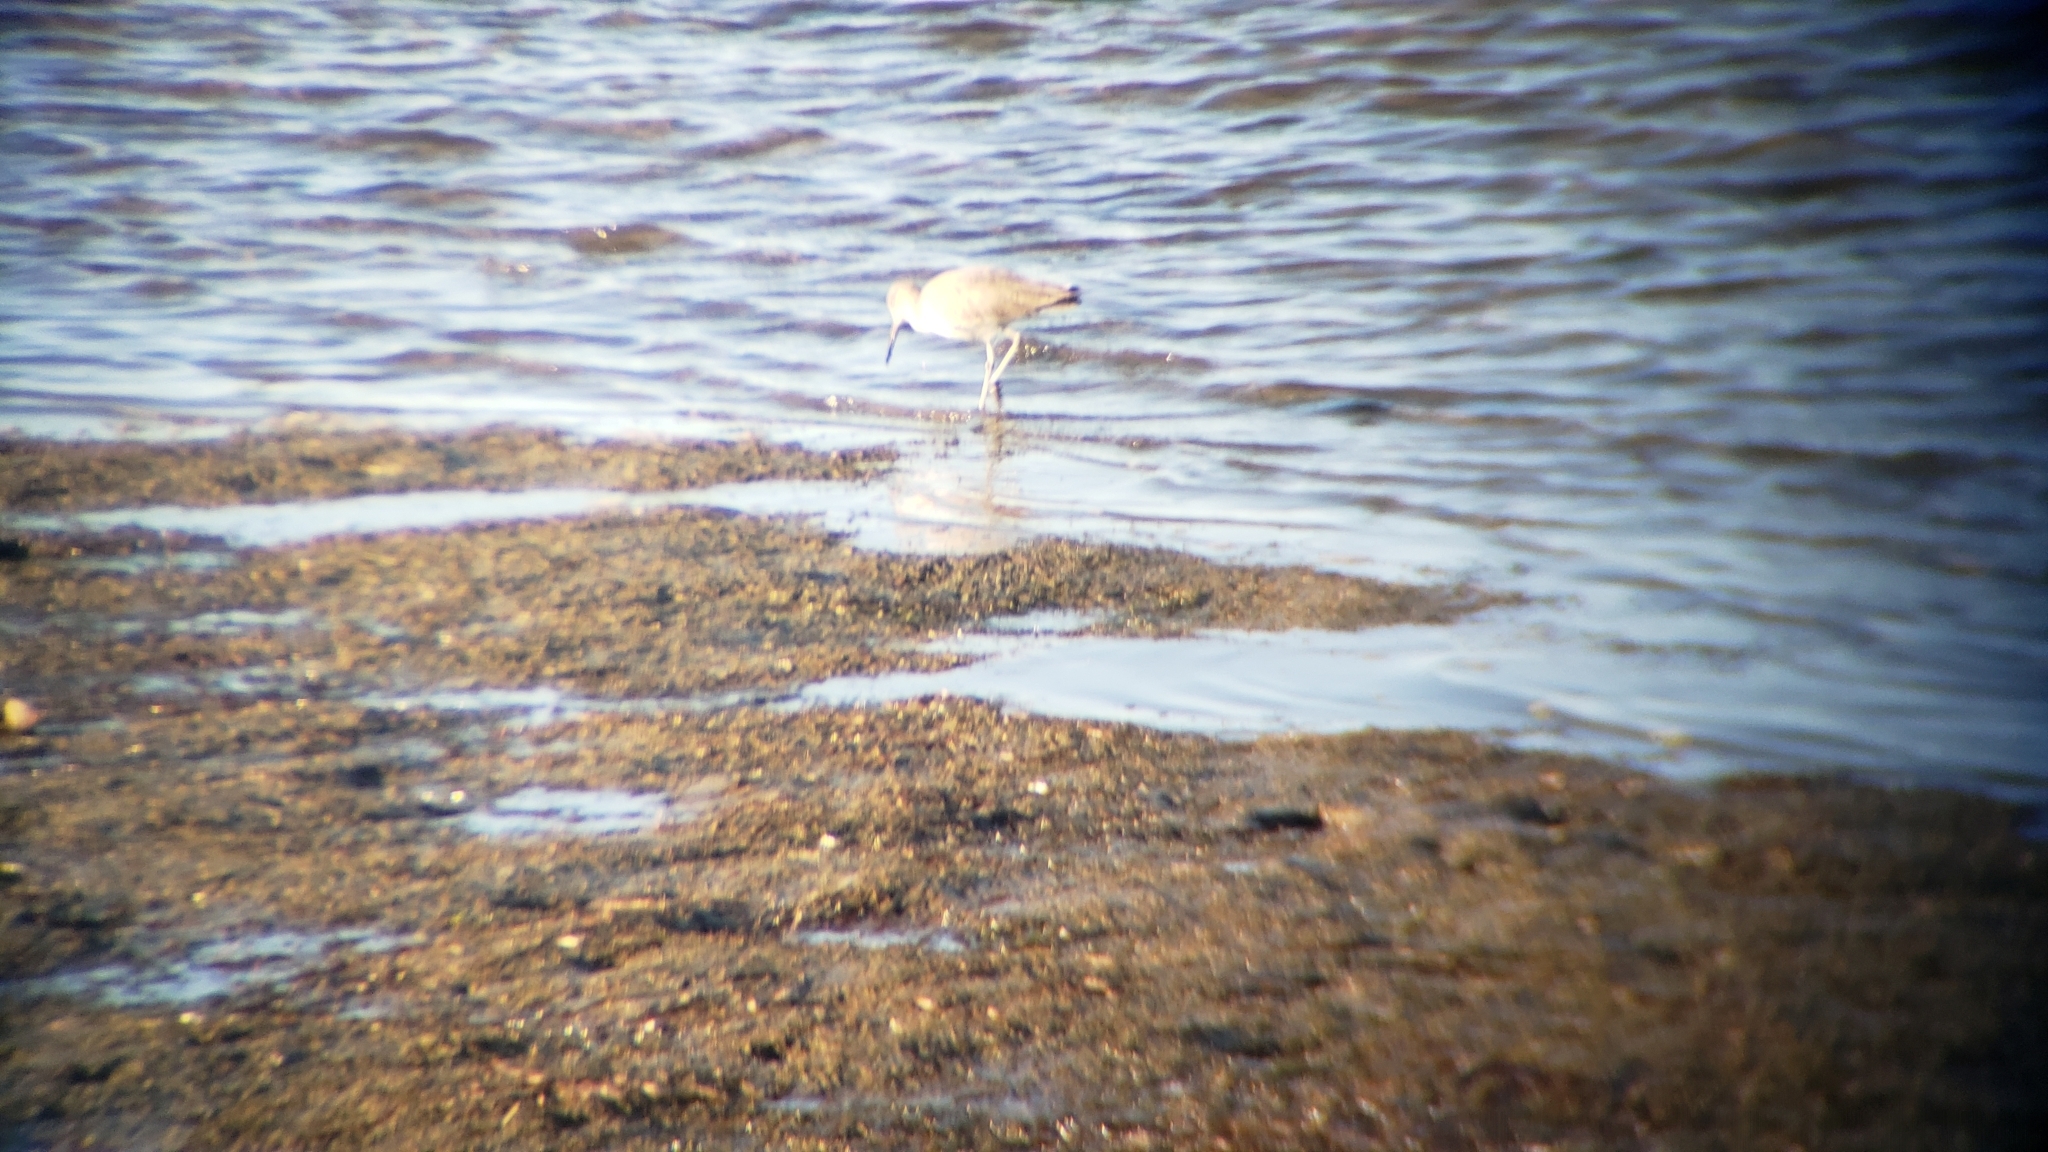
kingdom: Animalia
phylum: Chordata
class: Aves
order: Charadriiformes
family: Scolopacidae
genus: Tringa
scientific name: Tringa semipalmata
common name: Willet
